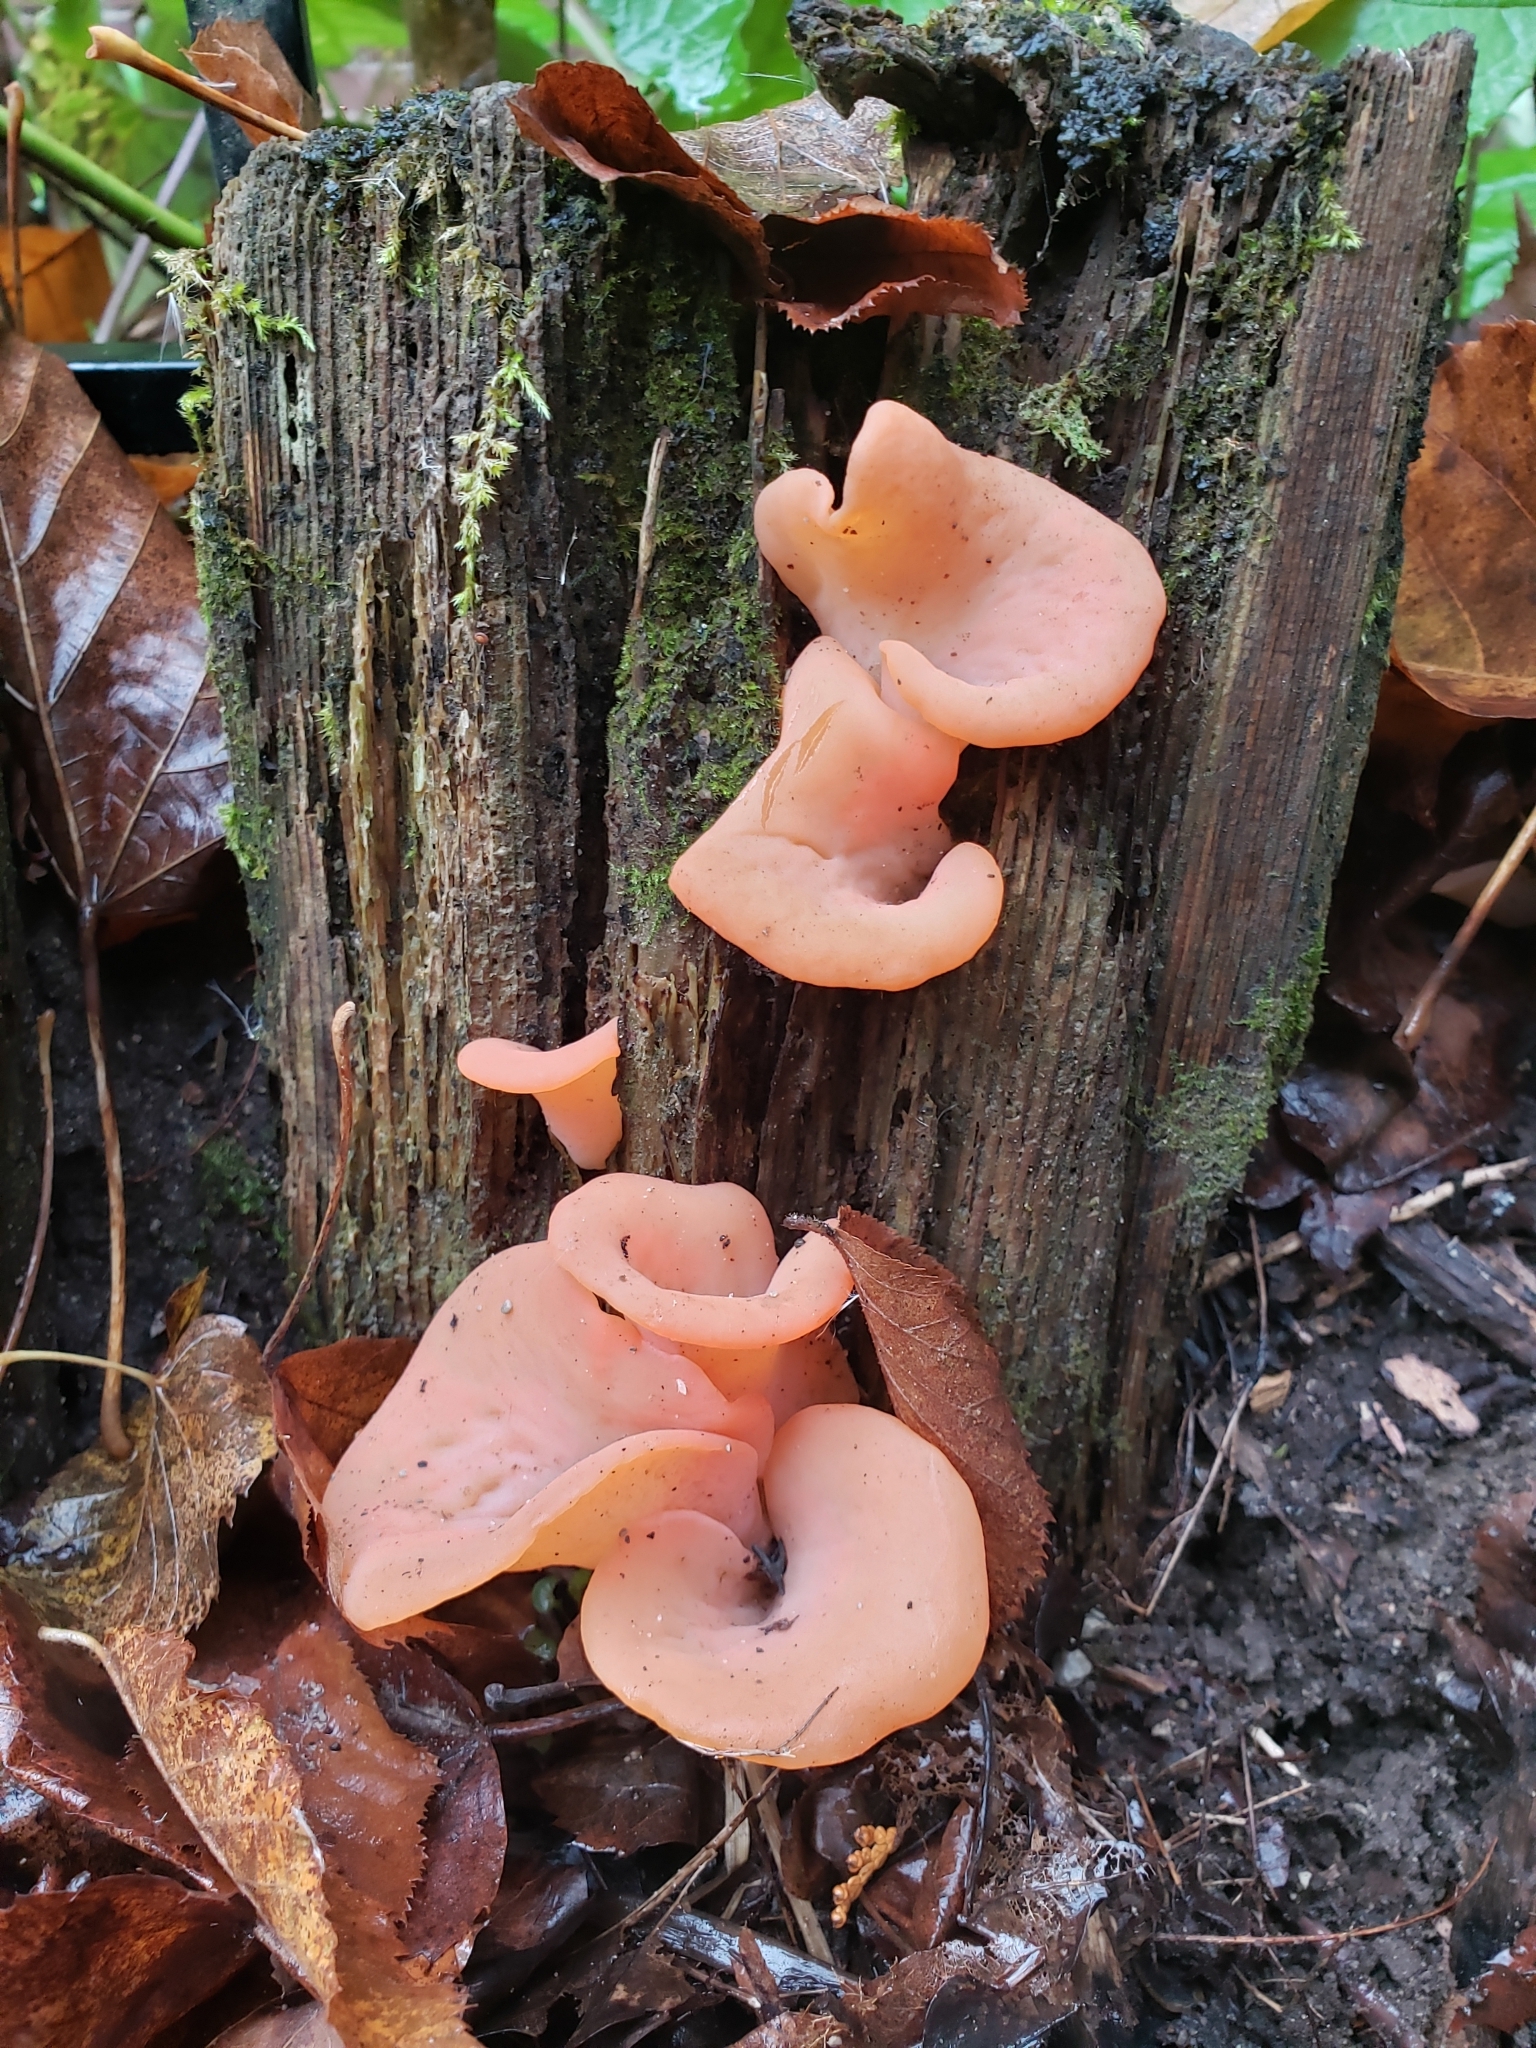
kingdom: Fungi
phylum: Basidiomycota
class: Agaricomycetes
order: Auriculariales
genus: Guepinia
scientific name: Guepinia helvelloides
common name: Salmon salad
